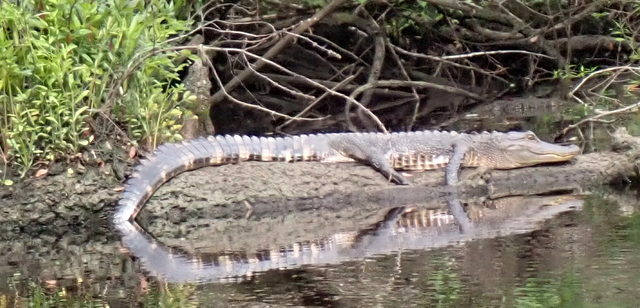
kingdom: Animalia
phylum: Chordata
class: Crocodylia
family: Alligatoridae
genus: Alligator
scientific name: Alligator mississippiensis
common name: American alligator
